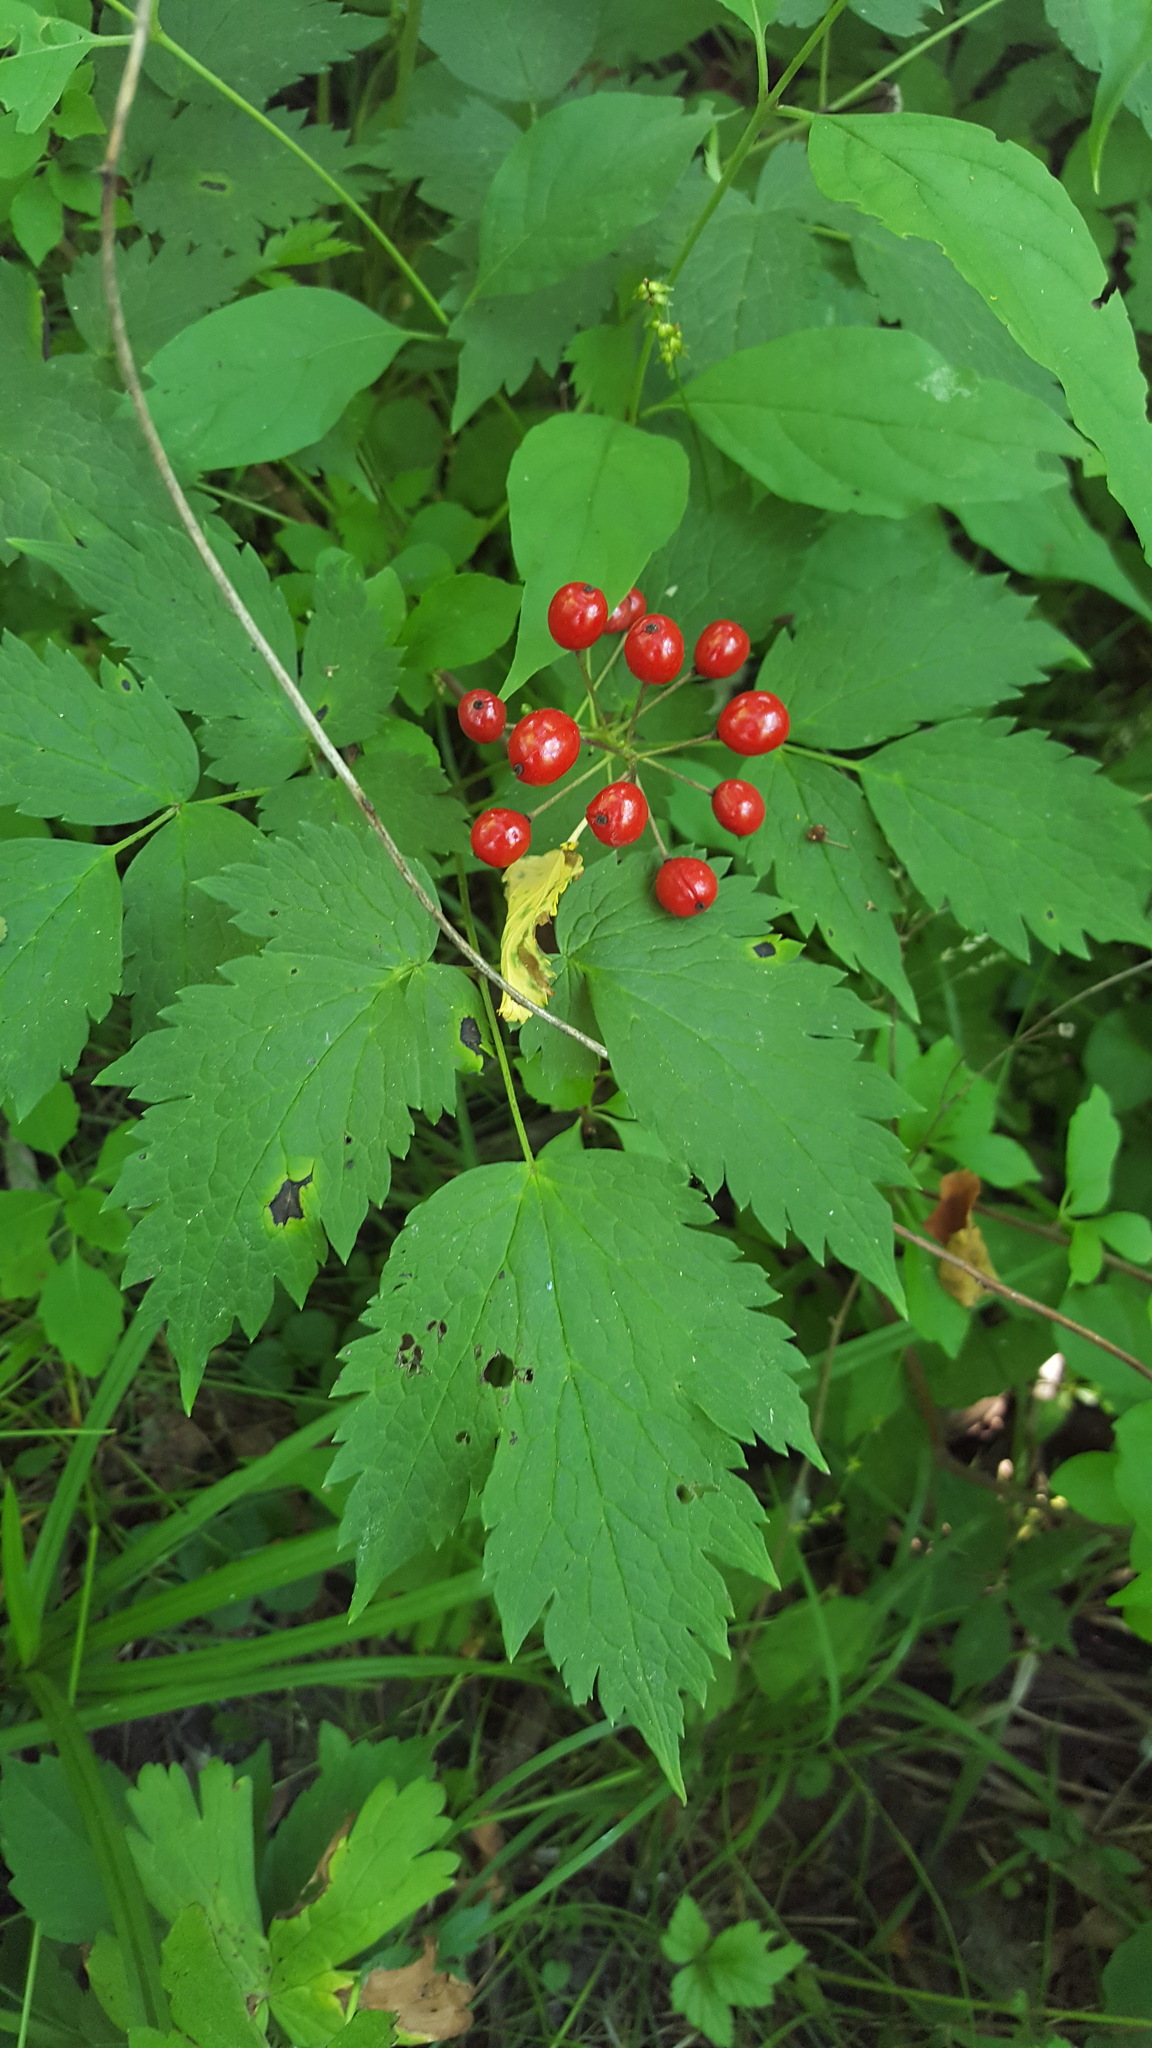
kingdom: Plantae
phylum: Tracheophyta
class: Magnoliopsida
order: Ranunculales
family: Ranunculaceae
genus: Actaea
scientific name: Actaea rubra
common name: Red baneberry
